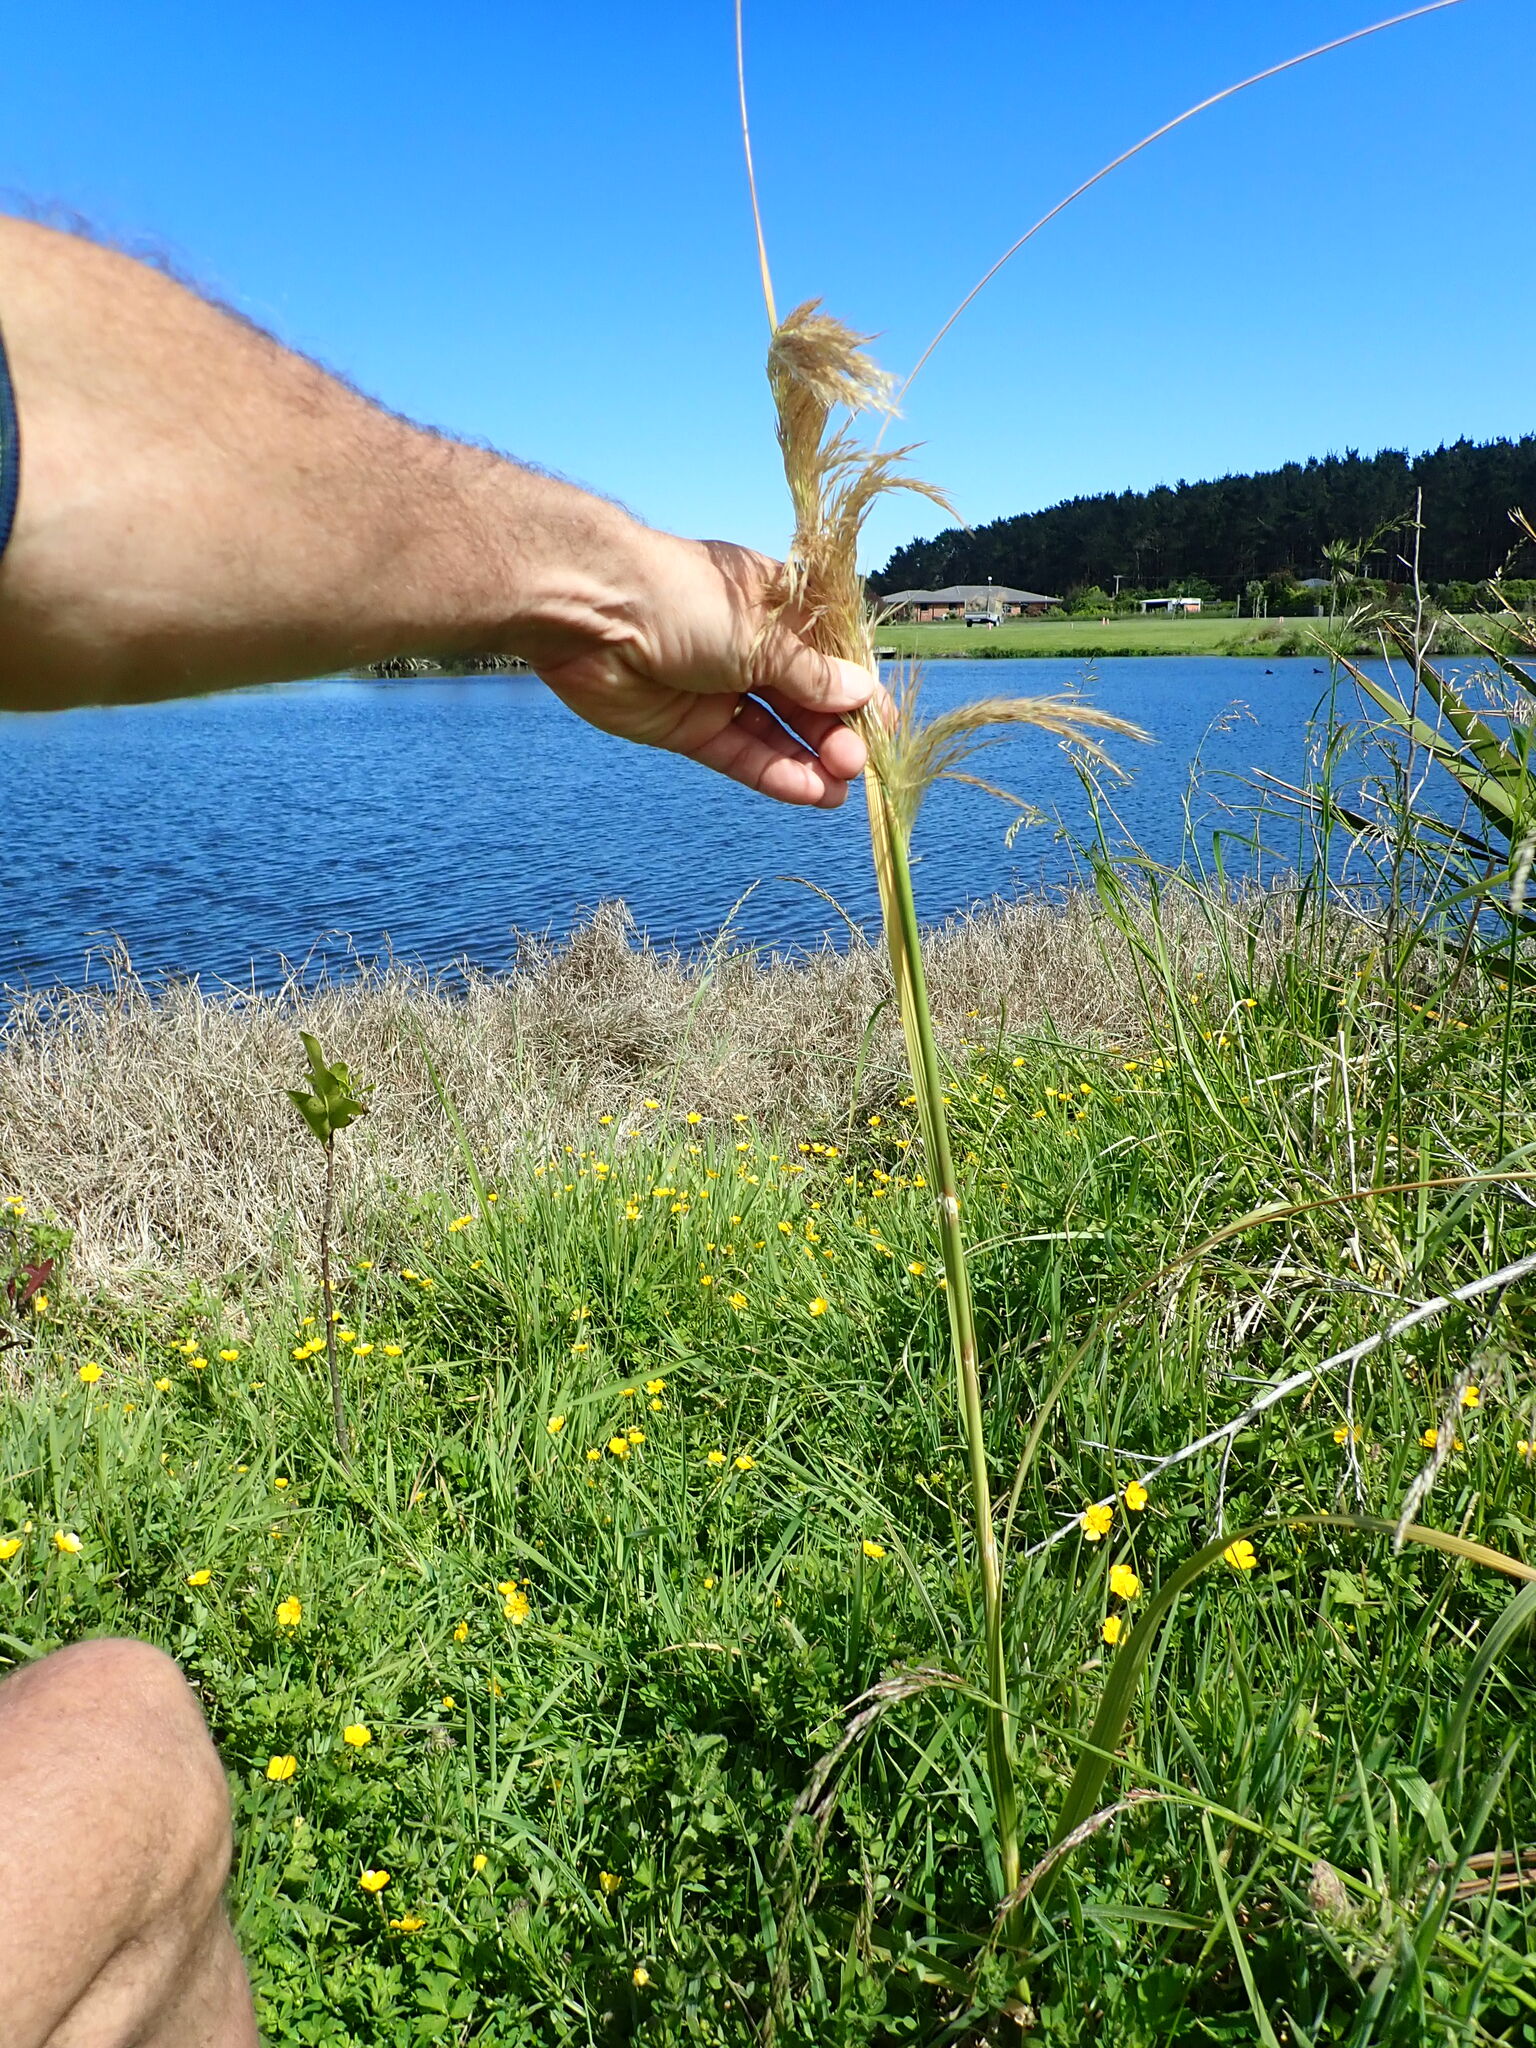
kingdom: Plantae
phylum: Tracheophyta
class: Liliopsida
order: Poales
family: Poaceae
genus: Austroderia
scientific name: Austroderia fulvida
